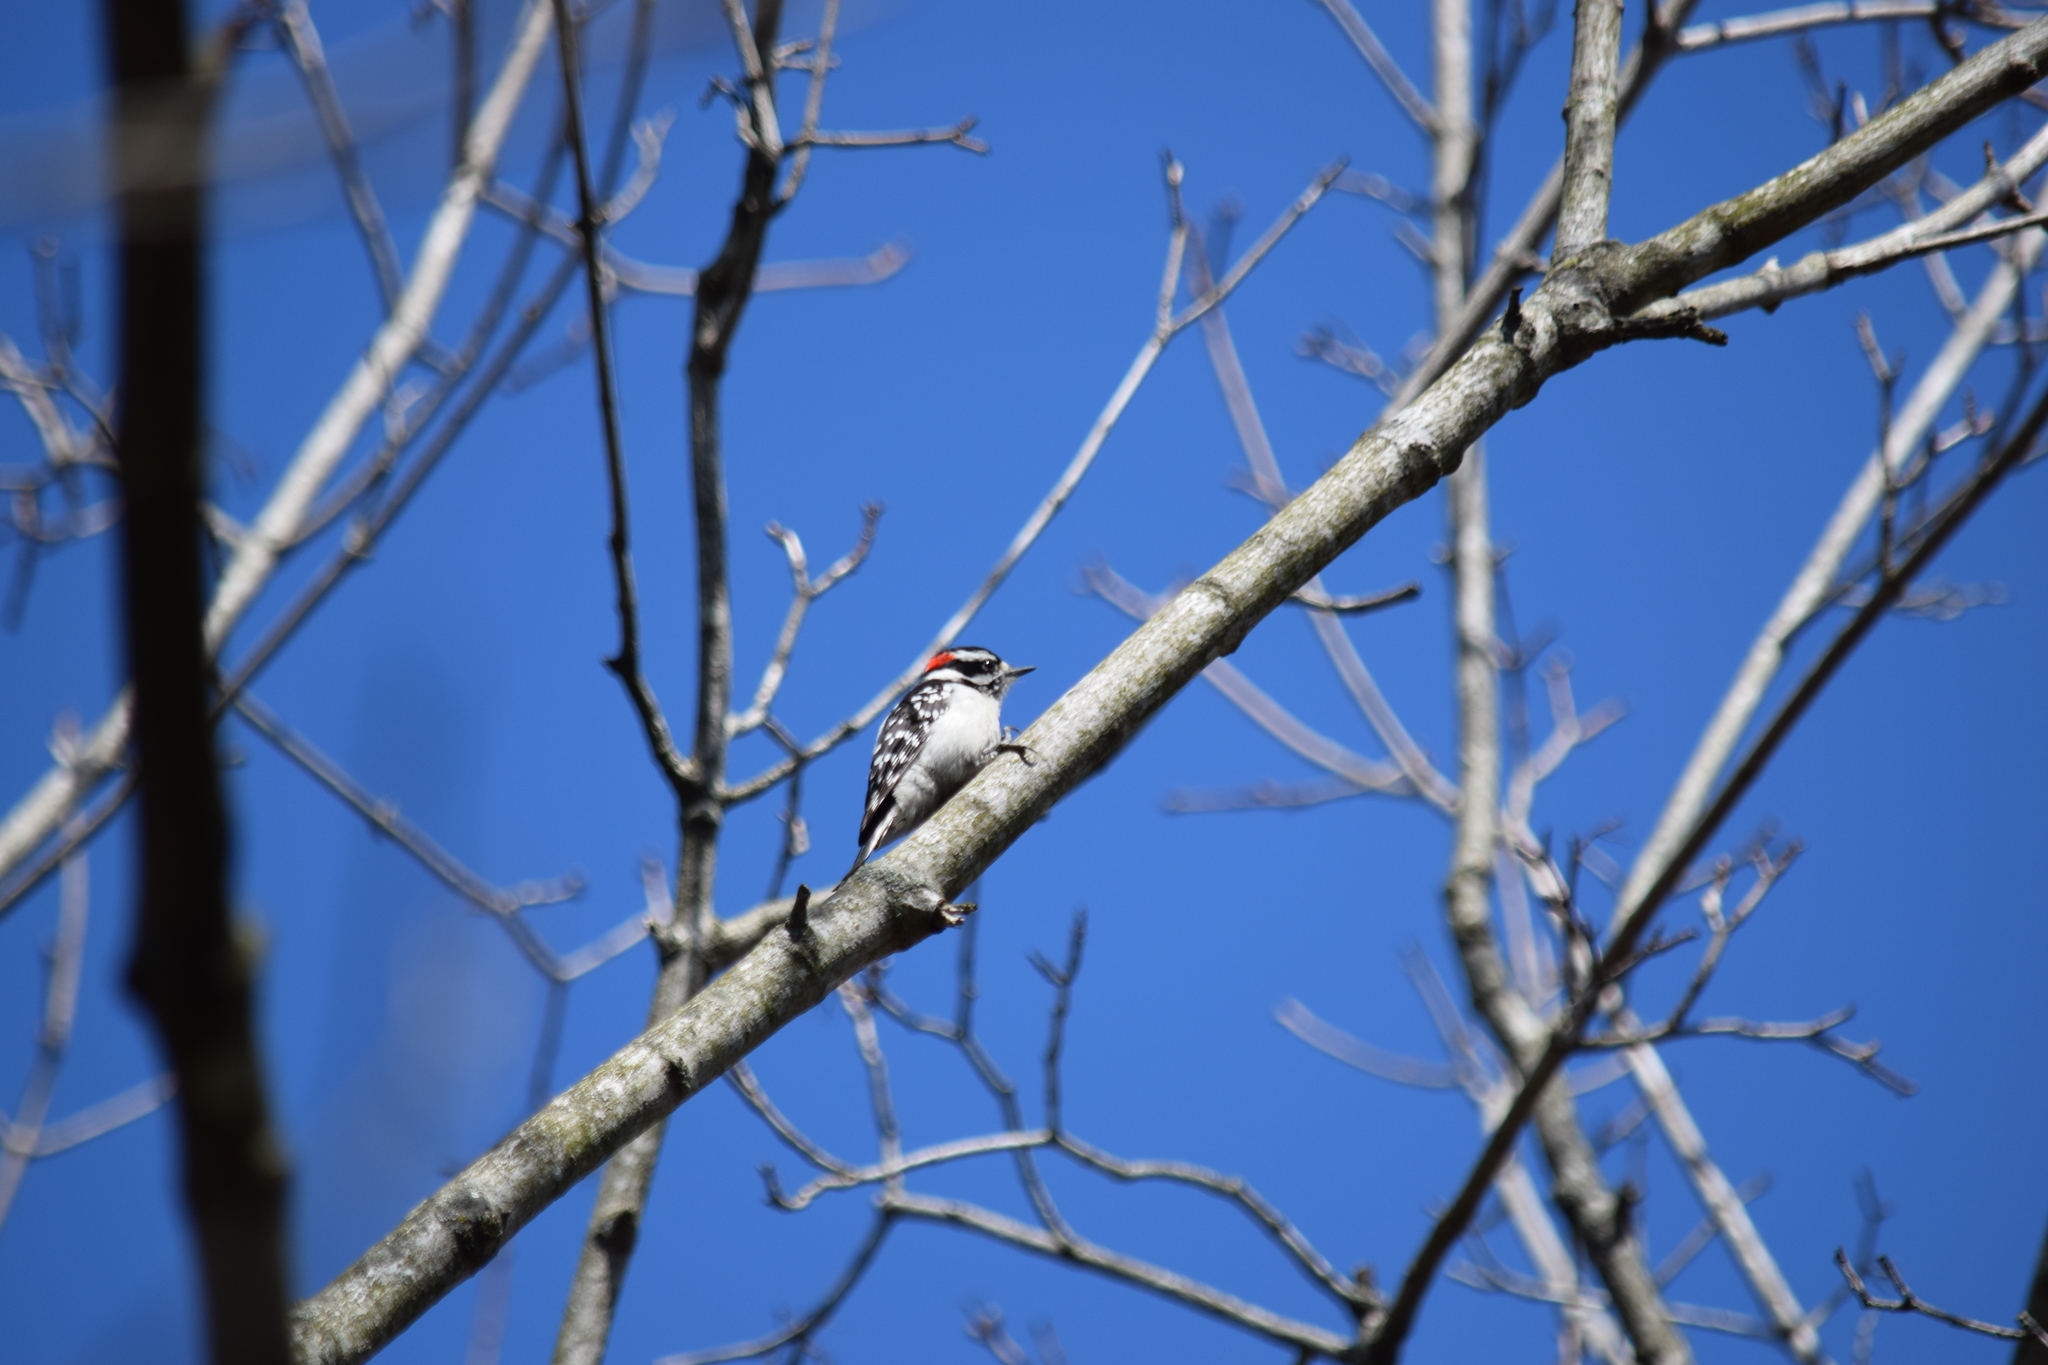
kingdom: Animalia
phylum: Chordata
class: Aves
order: Piciformes
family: Picidae
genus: Dryobates
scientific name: Dryobates pubescens
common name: Downy woodpecker
